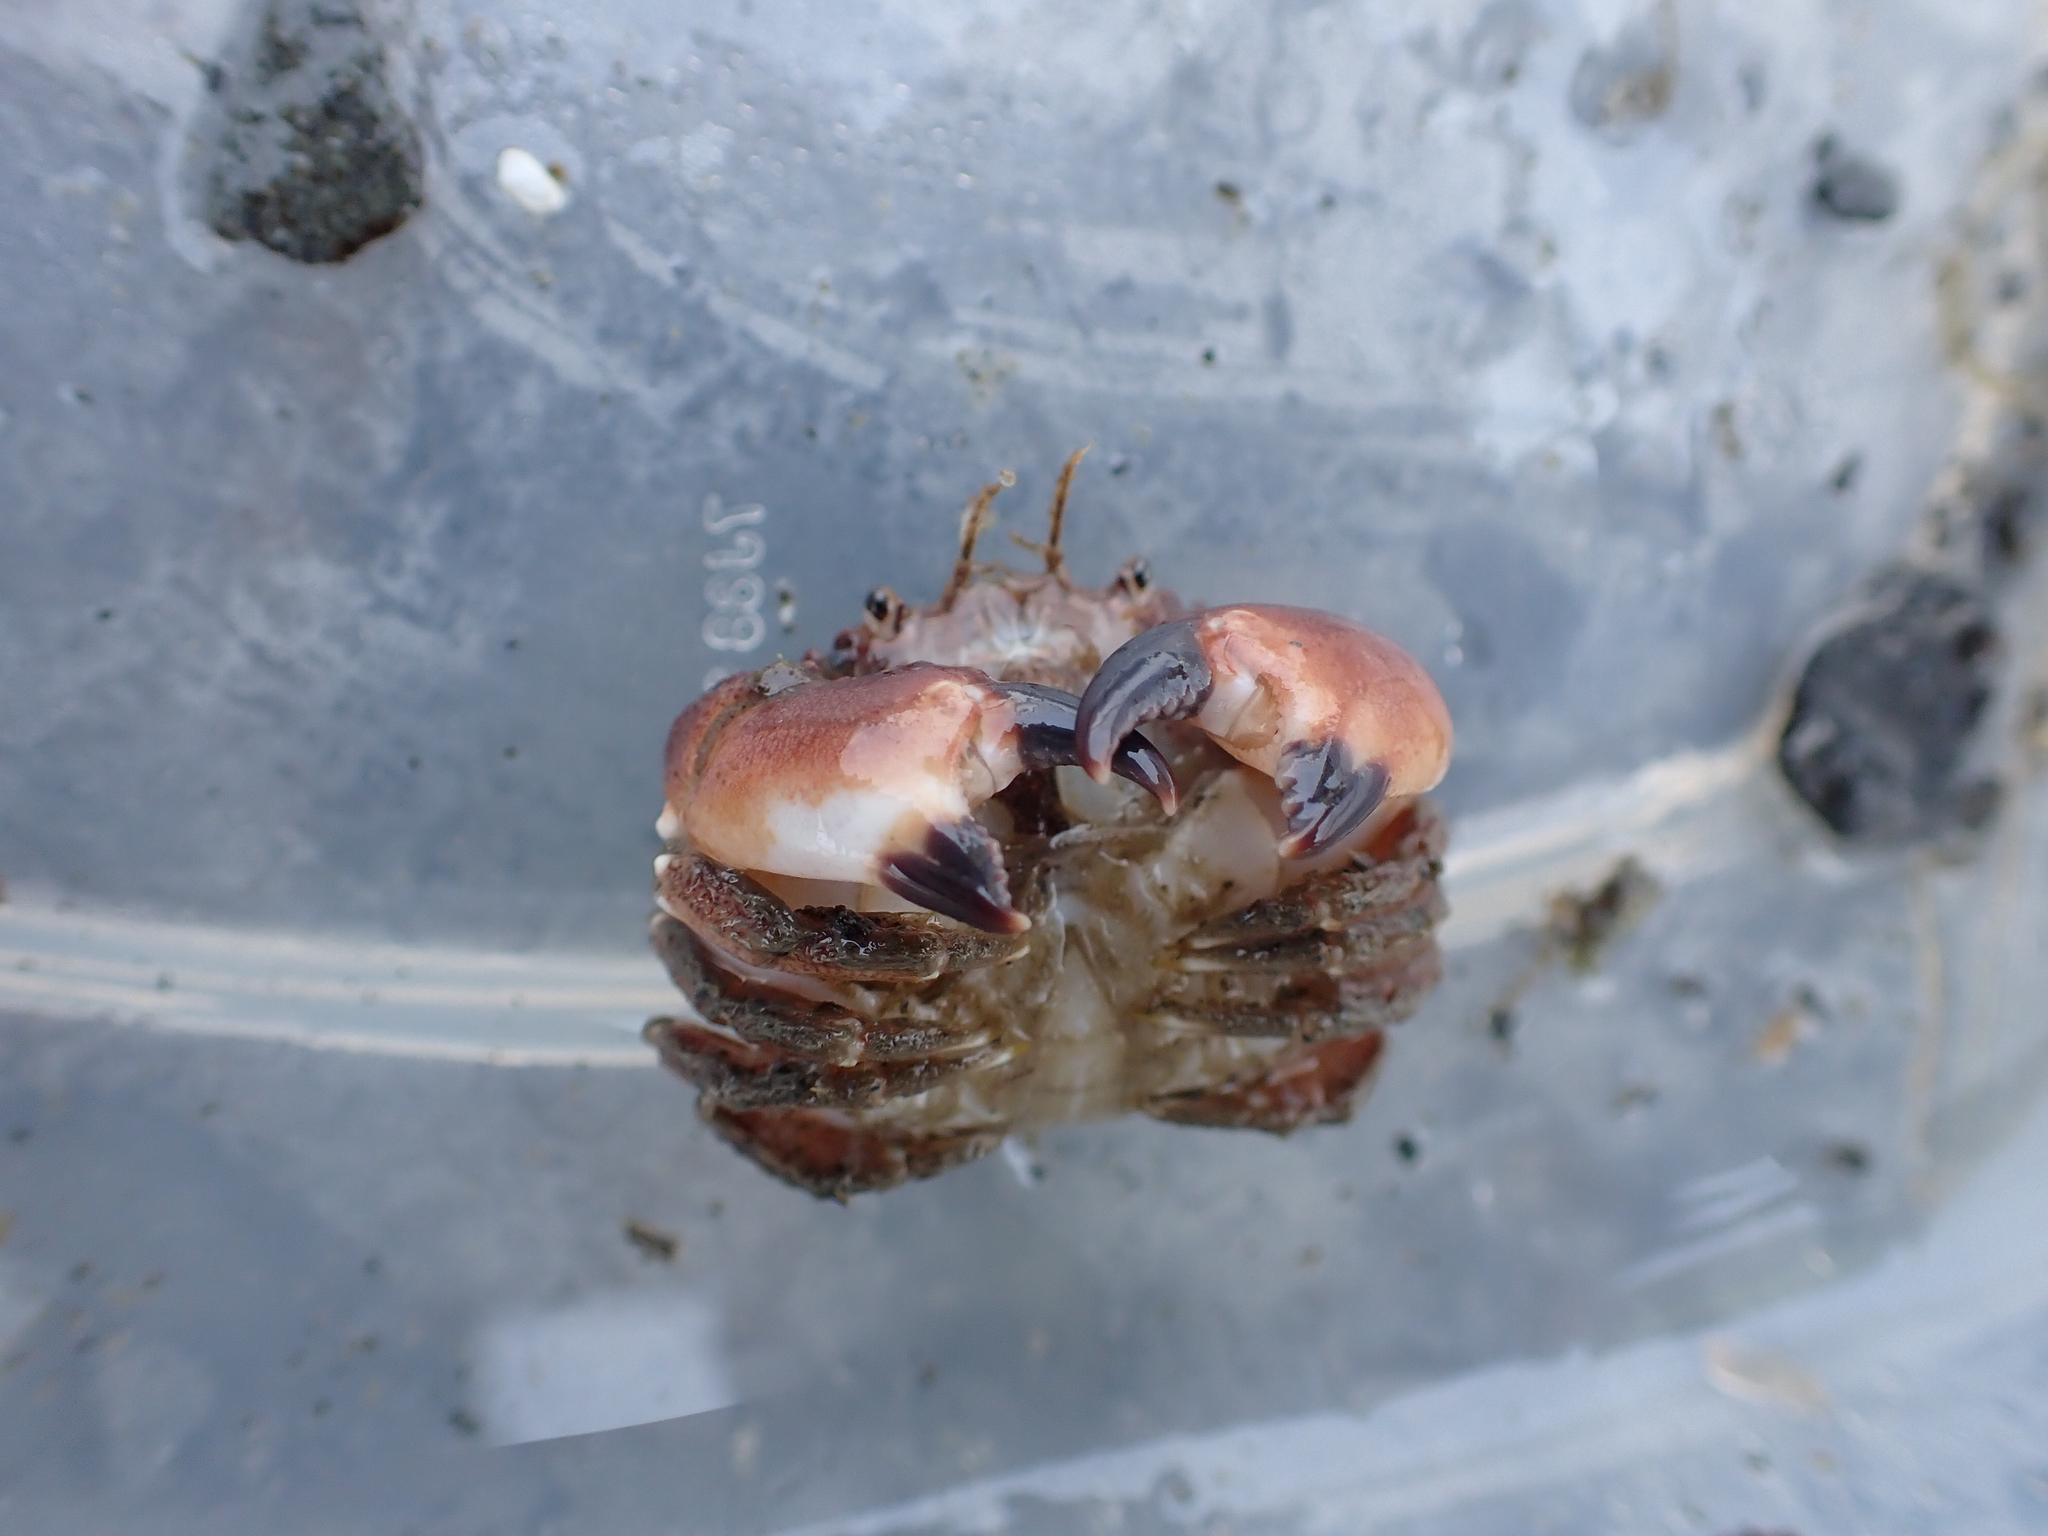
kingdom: Animalia
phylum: Arthropoda
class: Malacostraca
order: Decapoda
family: Cancridae
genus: Glebocarcinus
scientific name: Glebocarcinus oregonensis
